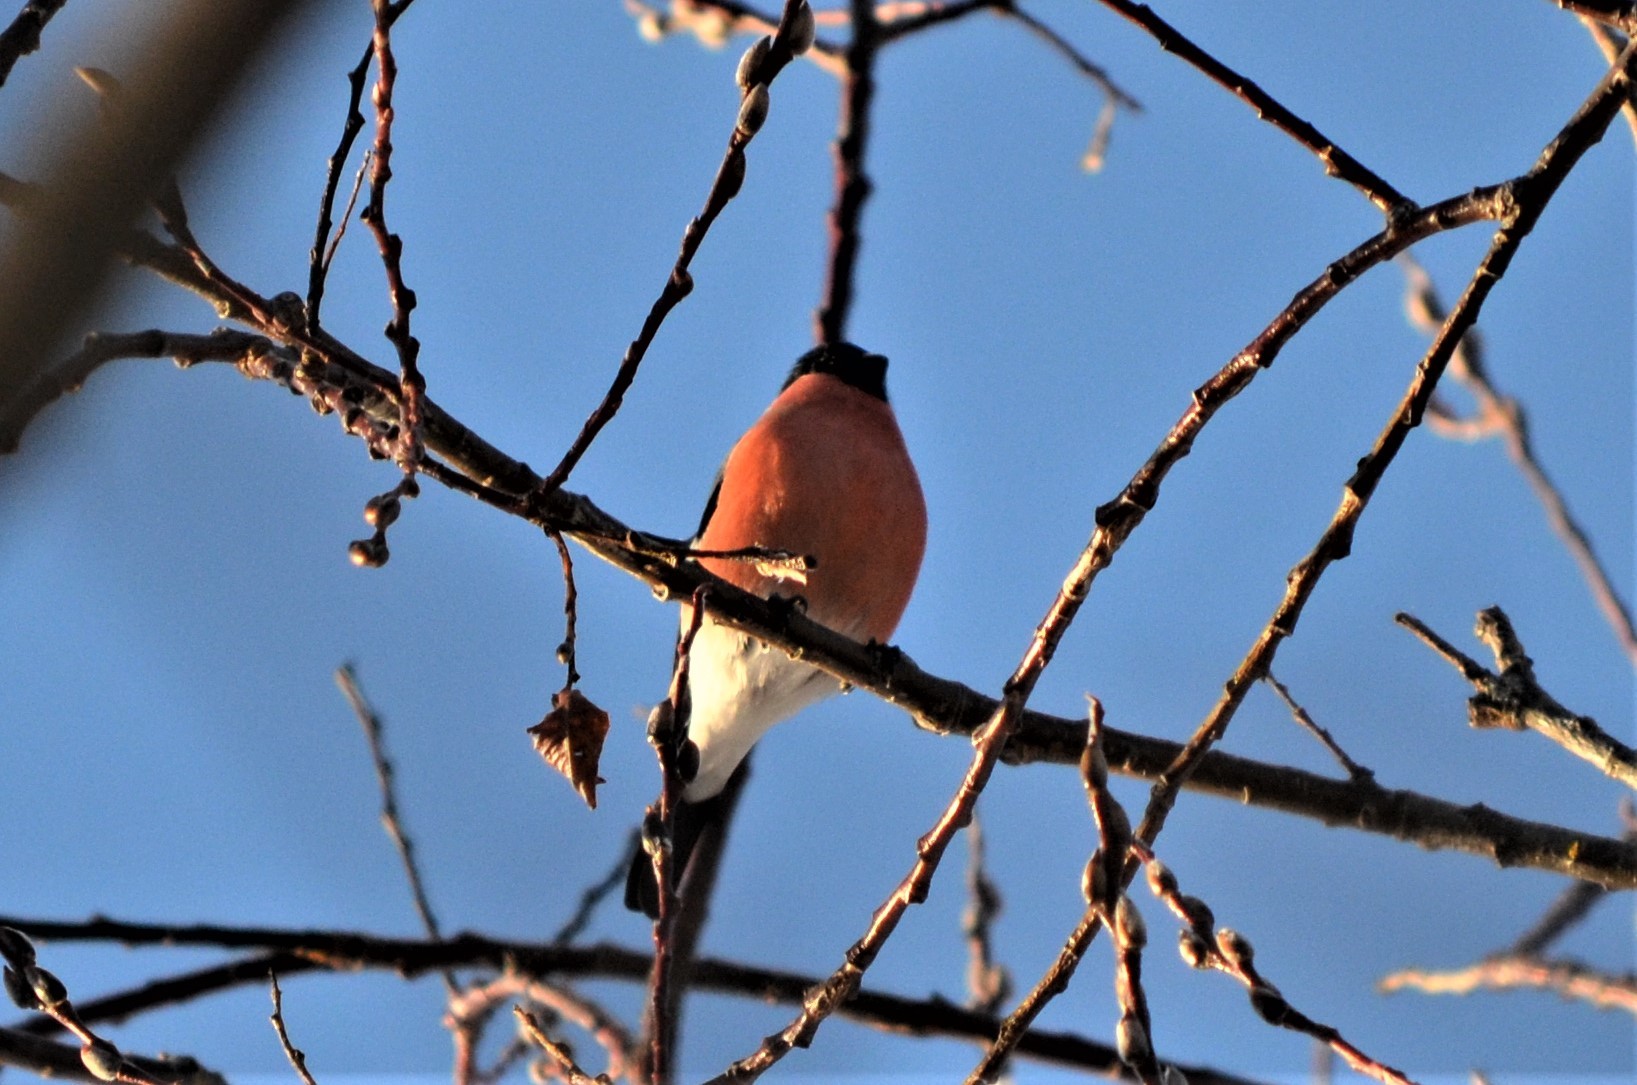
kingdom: Animalia
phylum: Chordata
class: Aves
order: Passeriformes
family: Fringillidae
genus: Pyrrhula
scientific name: Pyrrhula pyrrhula
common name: Eurasian bullfinch
